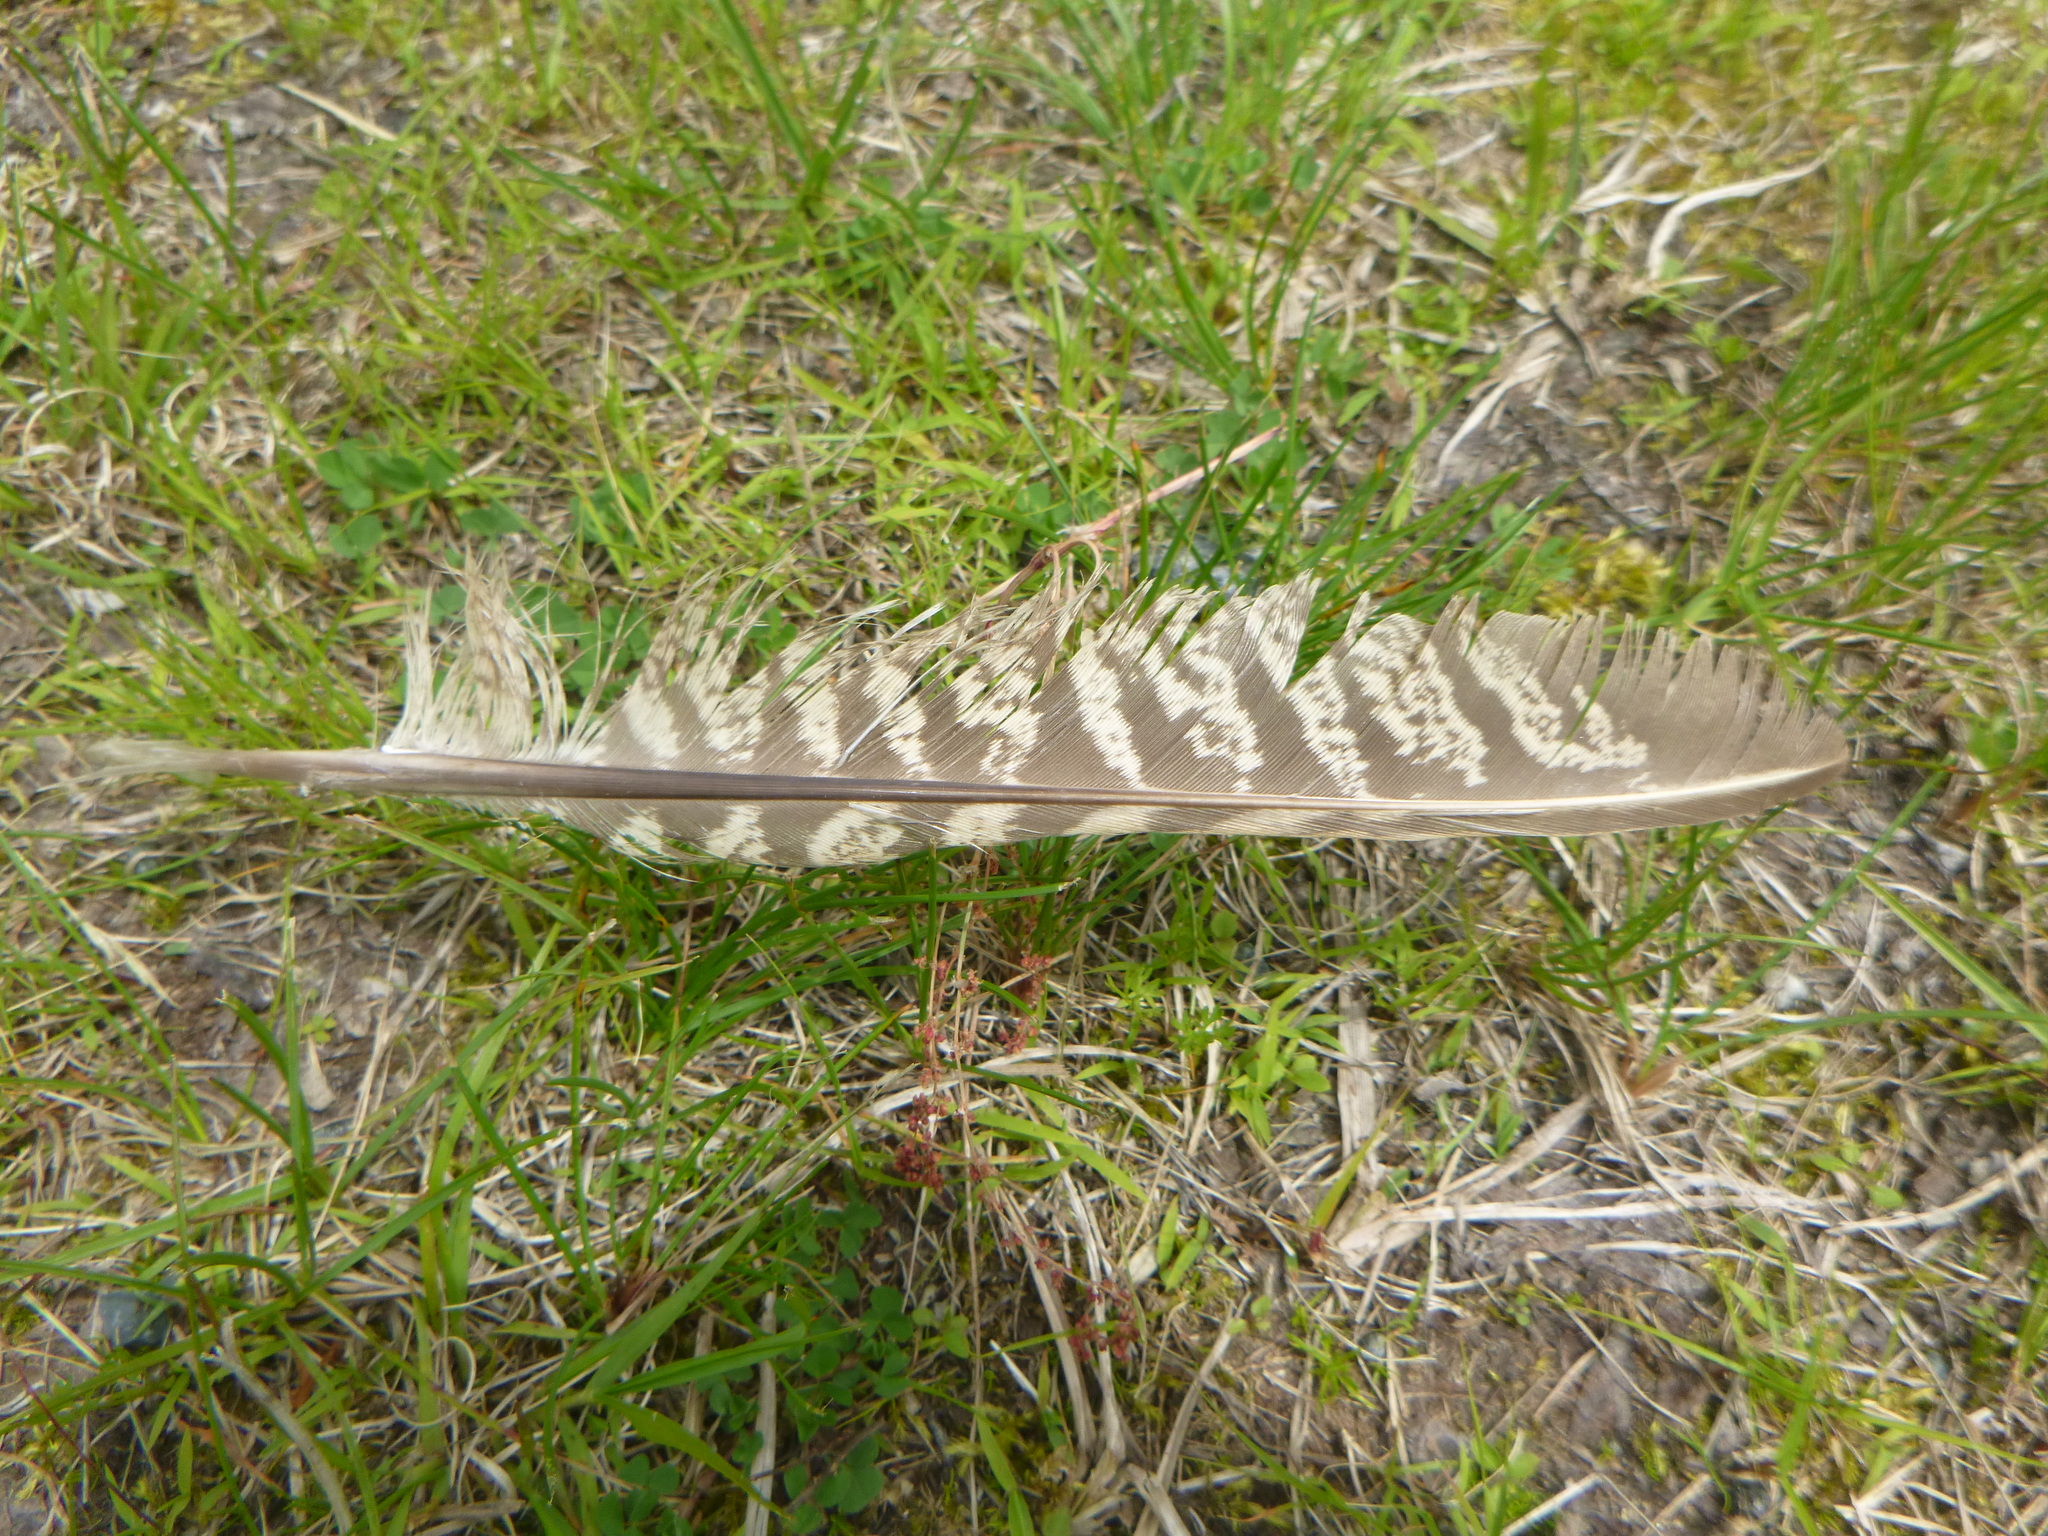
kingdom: Animalia
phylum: Chordata
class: Aves
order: Galliformes
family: Phasianidae
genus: Phasianus
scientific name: Phasianus colchicus
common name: Common pheasant
